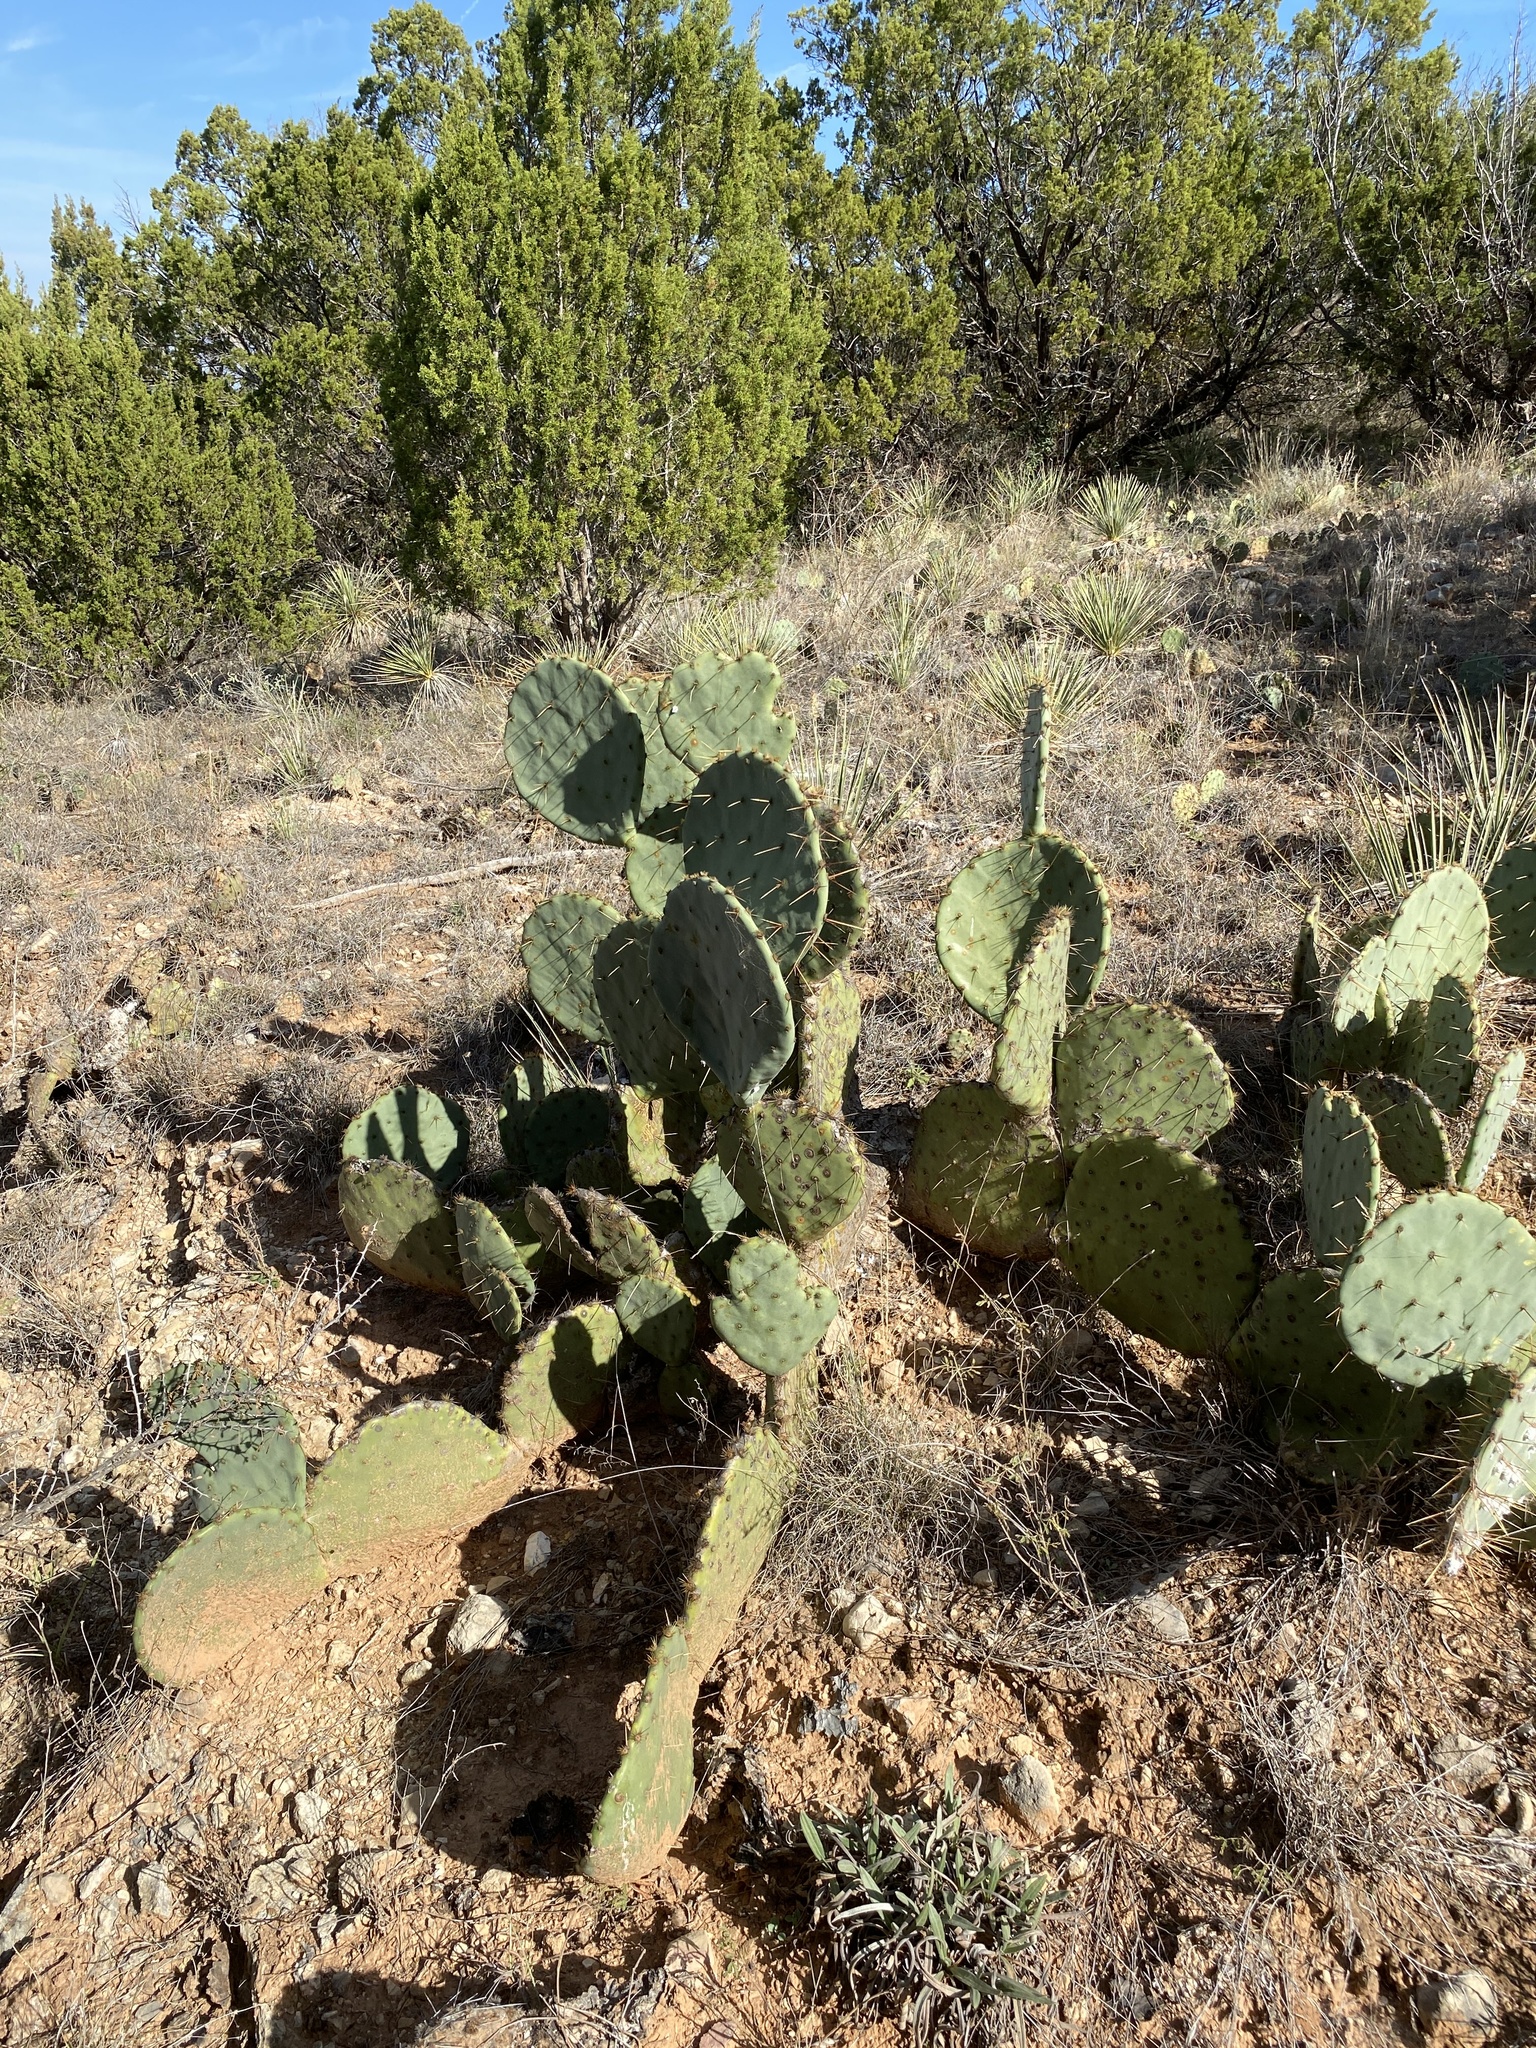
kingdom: Plantae
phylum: Tracheophyta
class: Magnoliopsida
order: Caryophyllales
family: Cactaceae
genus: Opuntia
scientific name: Opuntia engelmannii
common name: Cactus-apple
